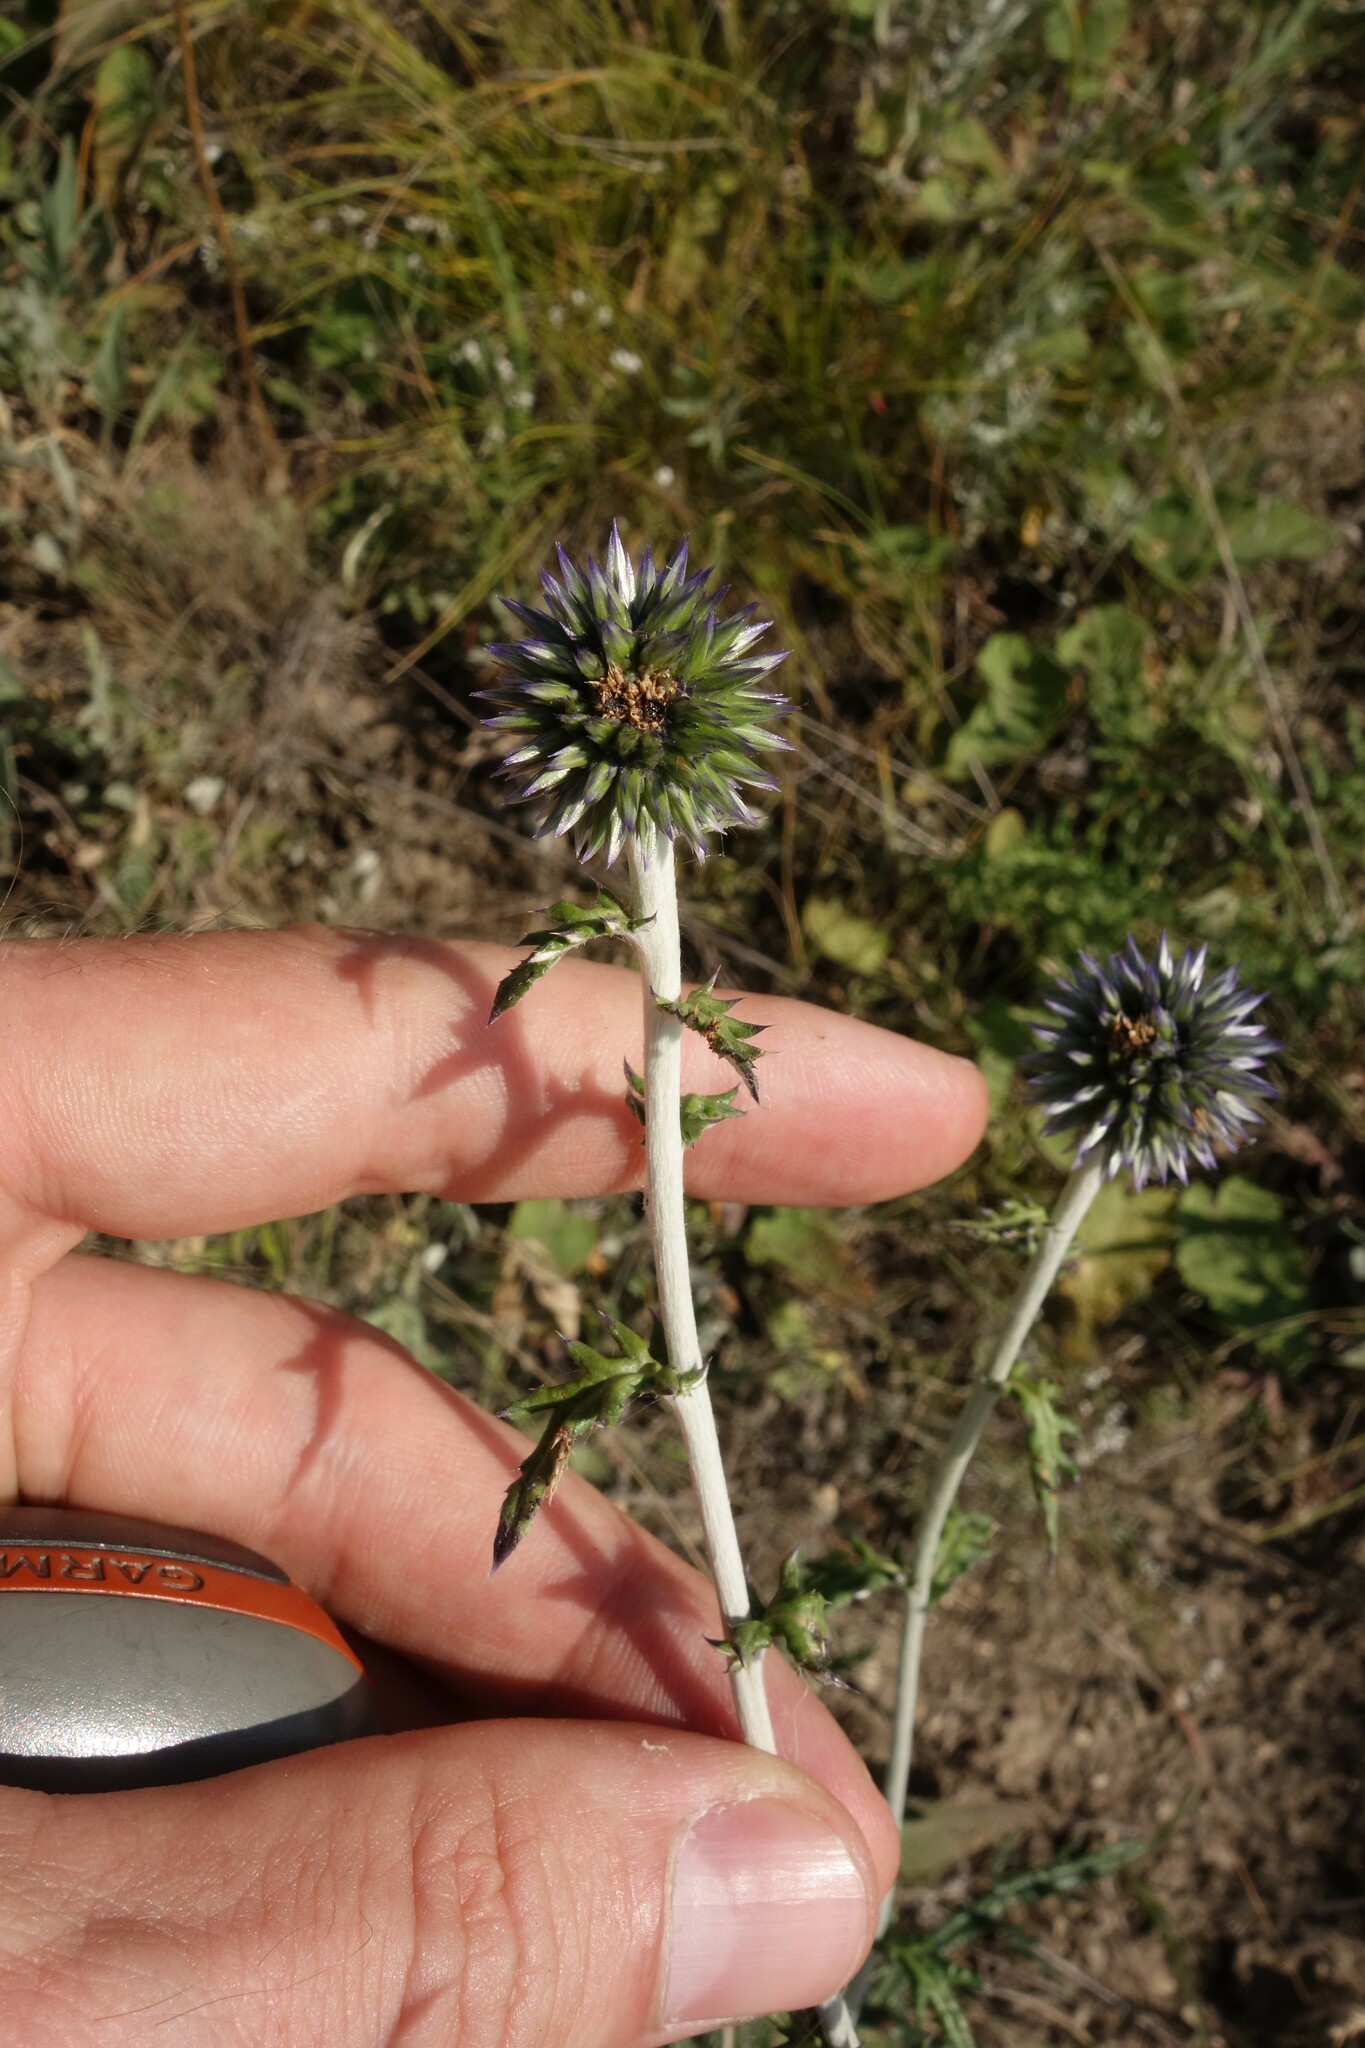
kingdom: Plantae
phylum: Tracheophyta
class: Magnoliopsida
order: Asterales
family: Asteraceae
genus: Echinops
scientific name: Echinops ritro
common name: Globe thistle
